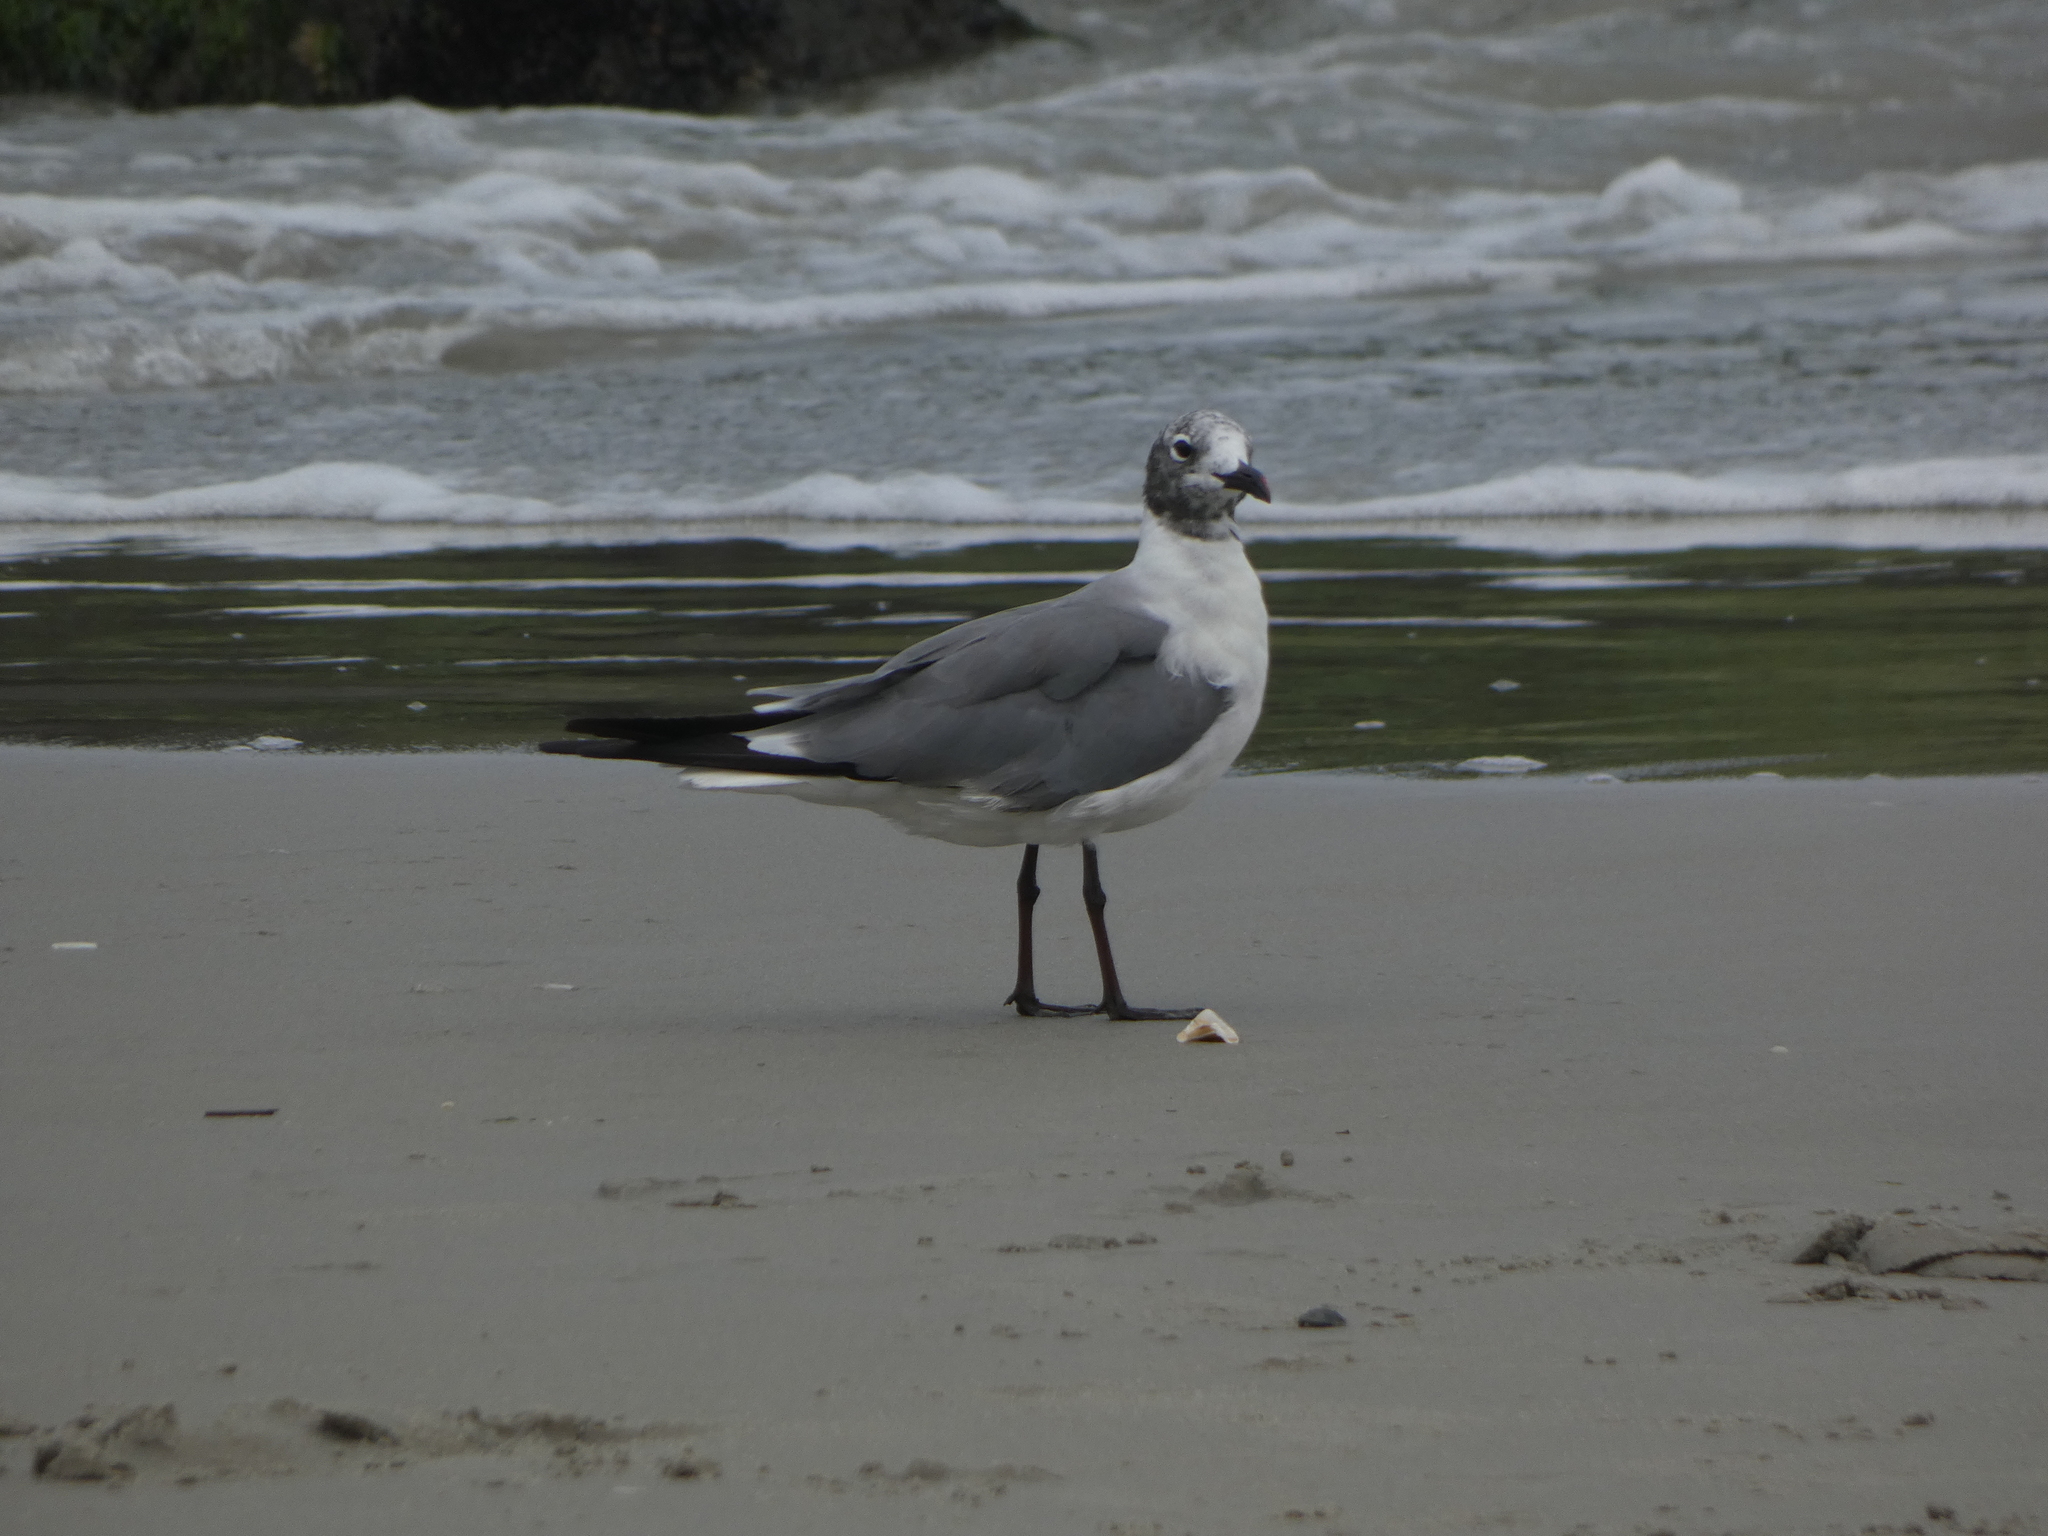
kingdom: Animalia
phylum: Chordata
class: Aves
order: Charadriiformes
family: Laridae
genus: Leucophaeus
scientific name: Leucophaeus atricilla
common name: Laughing gull
